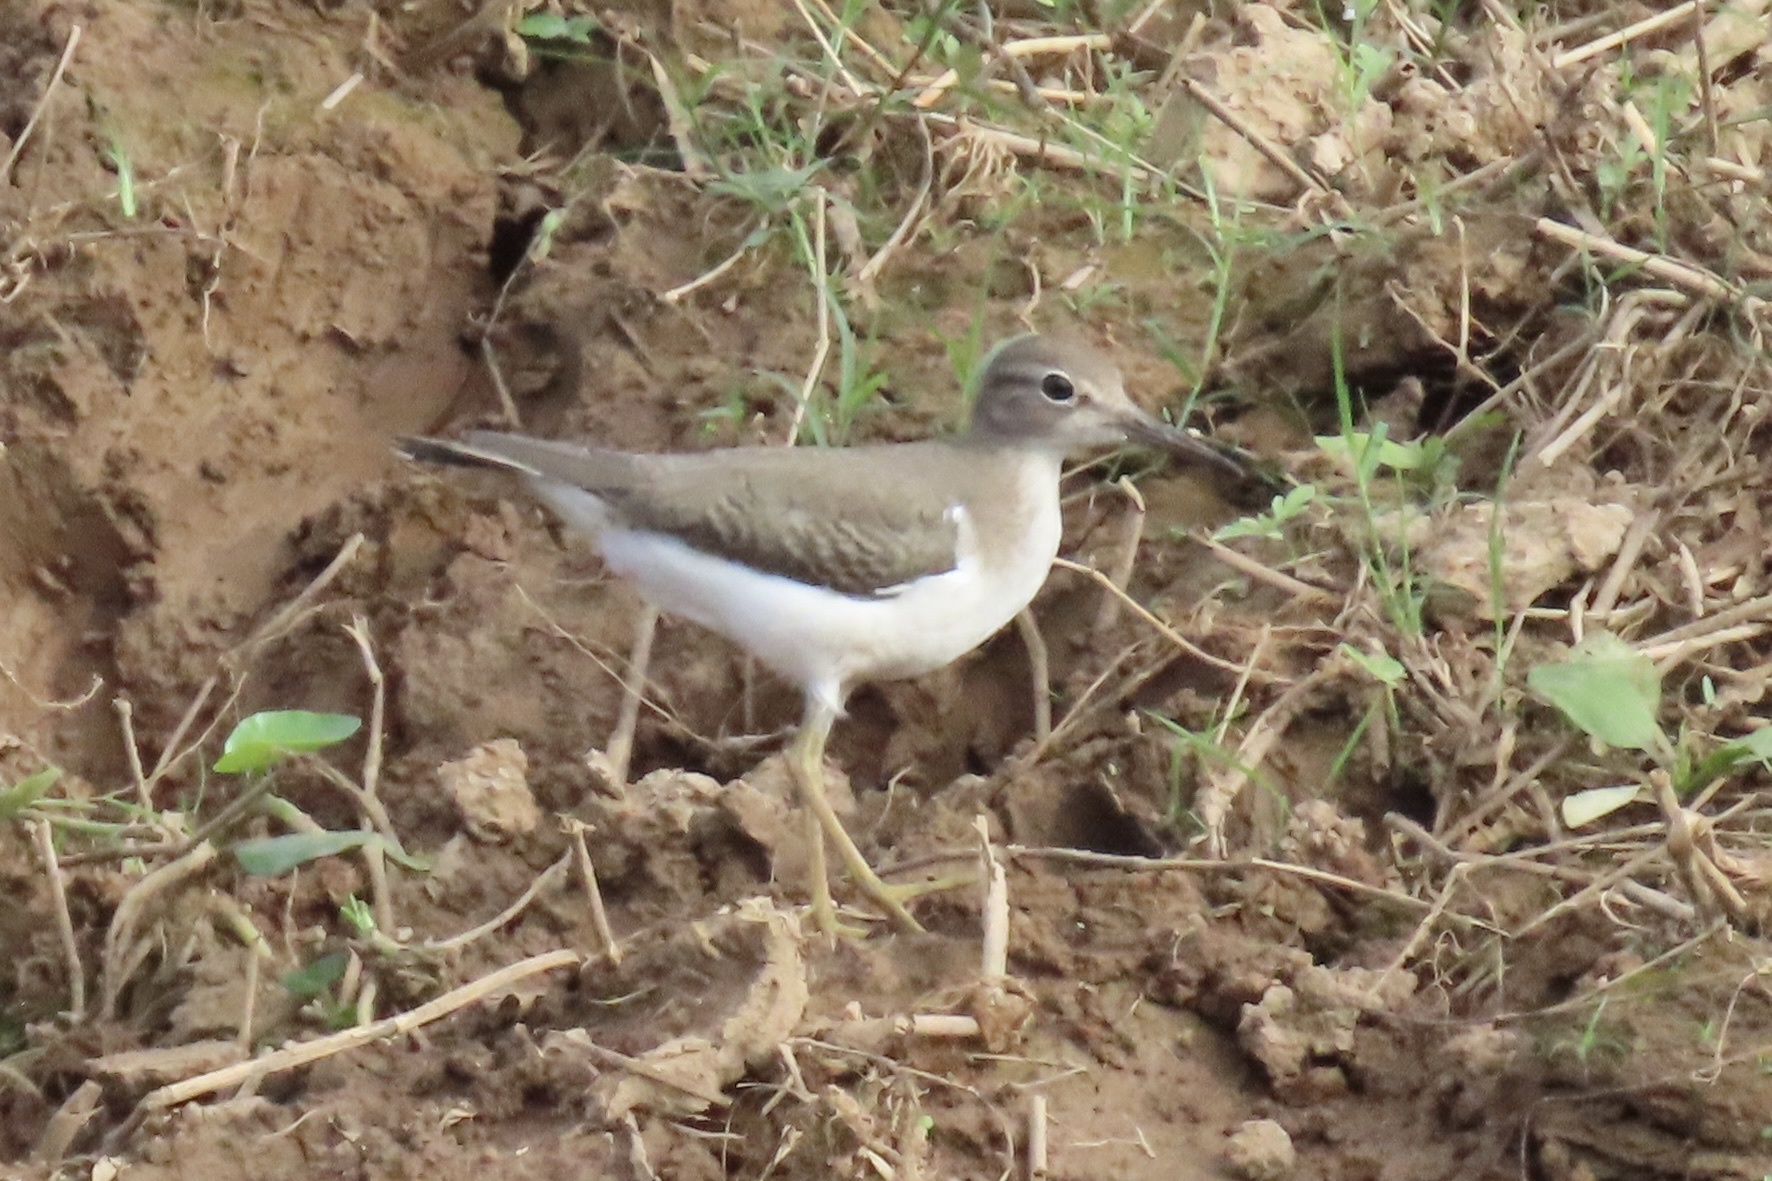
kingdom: Animalia
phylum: Chordata
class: Aves
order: Charadriiformes
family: Scolopacidae
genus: Actitis
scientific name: Actitis macularius
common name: Spotted sandpiper
